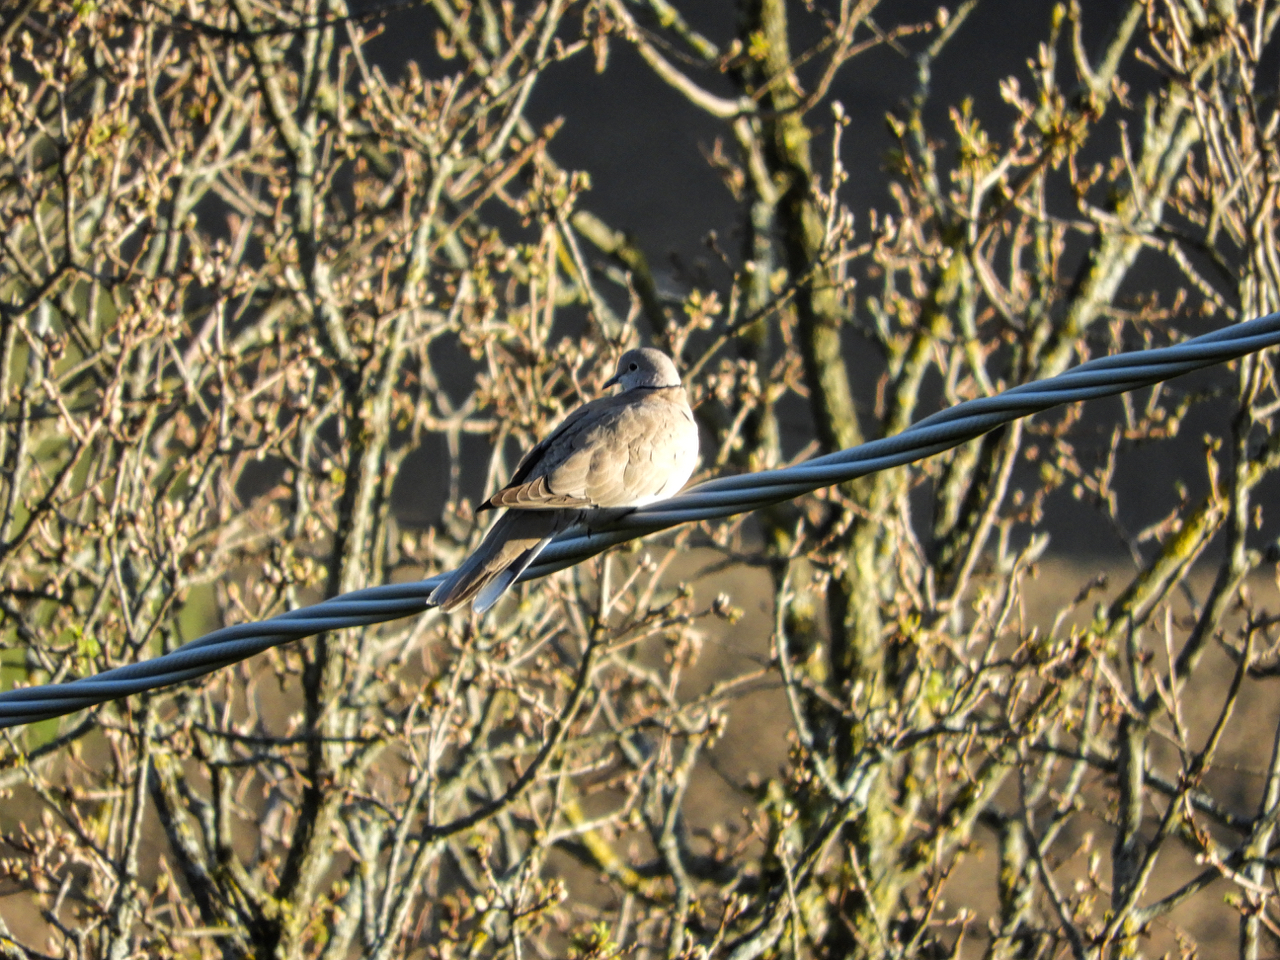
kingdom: Animalia
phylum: Chordata
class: Aves
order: Columbiformes
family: Columbidae
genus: Streptopelia
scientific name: Streptopelia decaocto
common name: Eurasian collared dove
